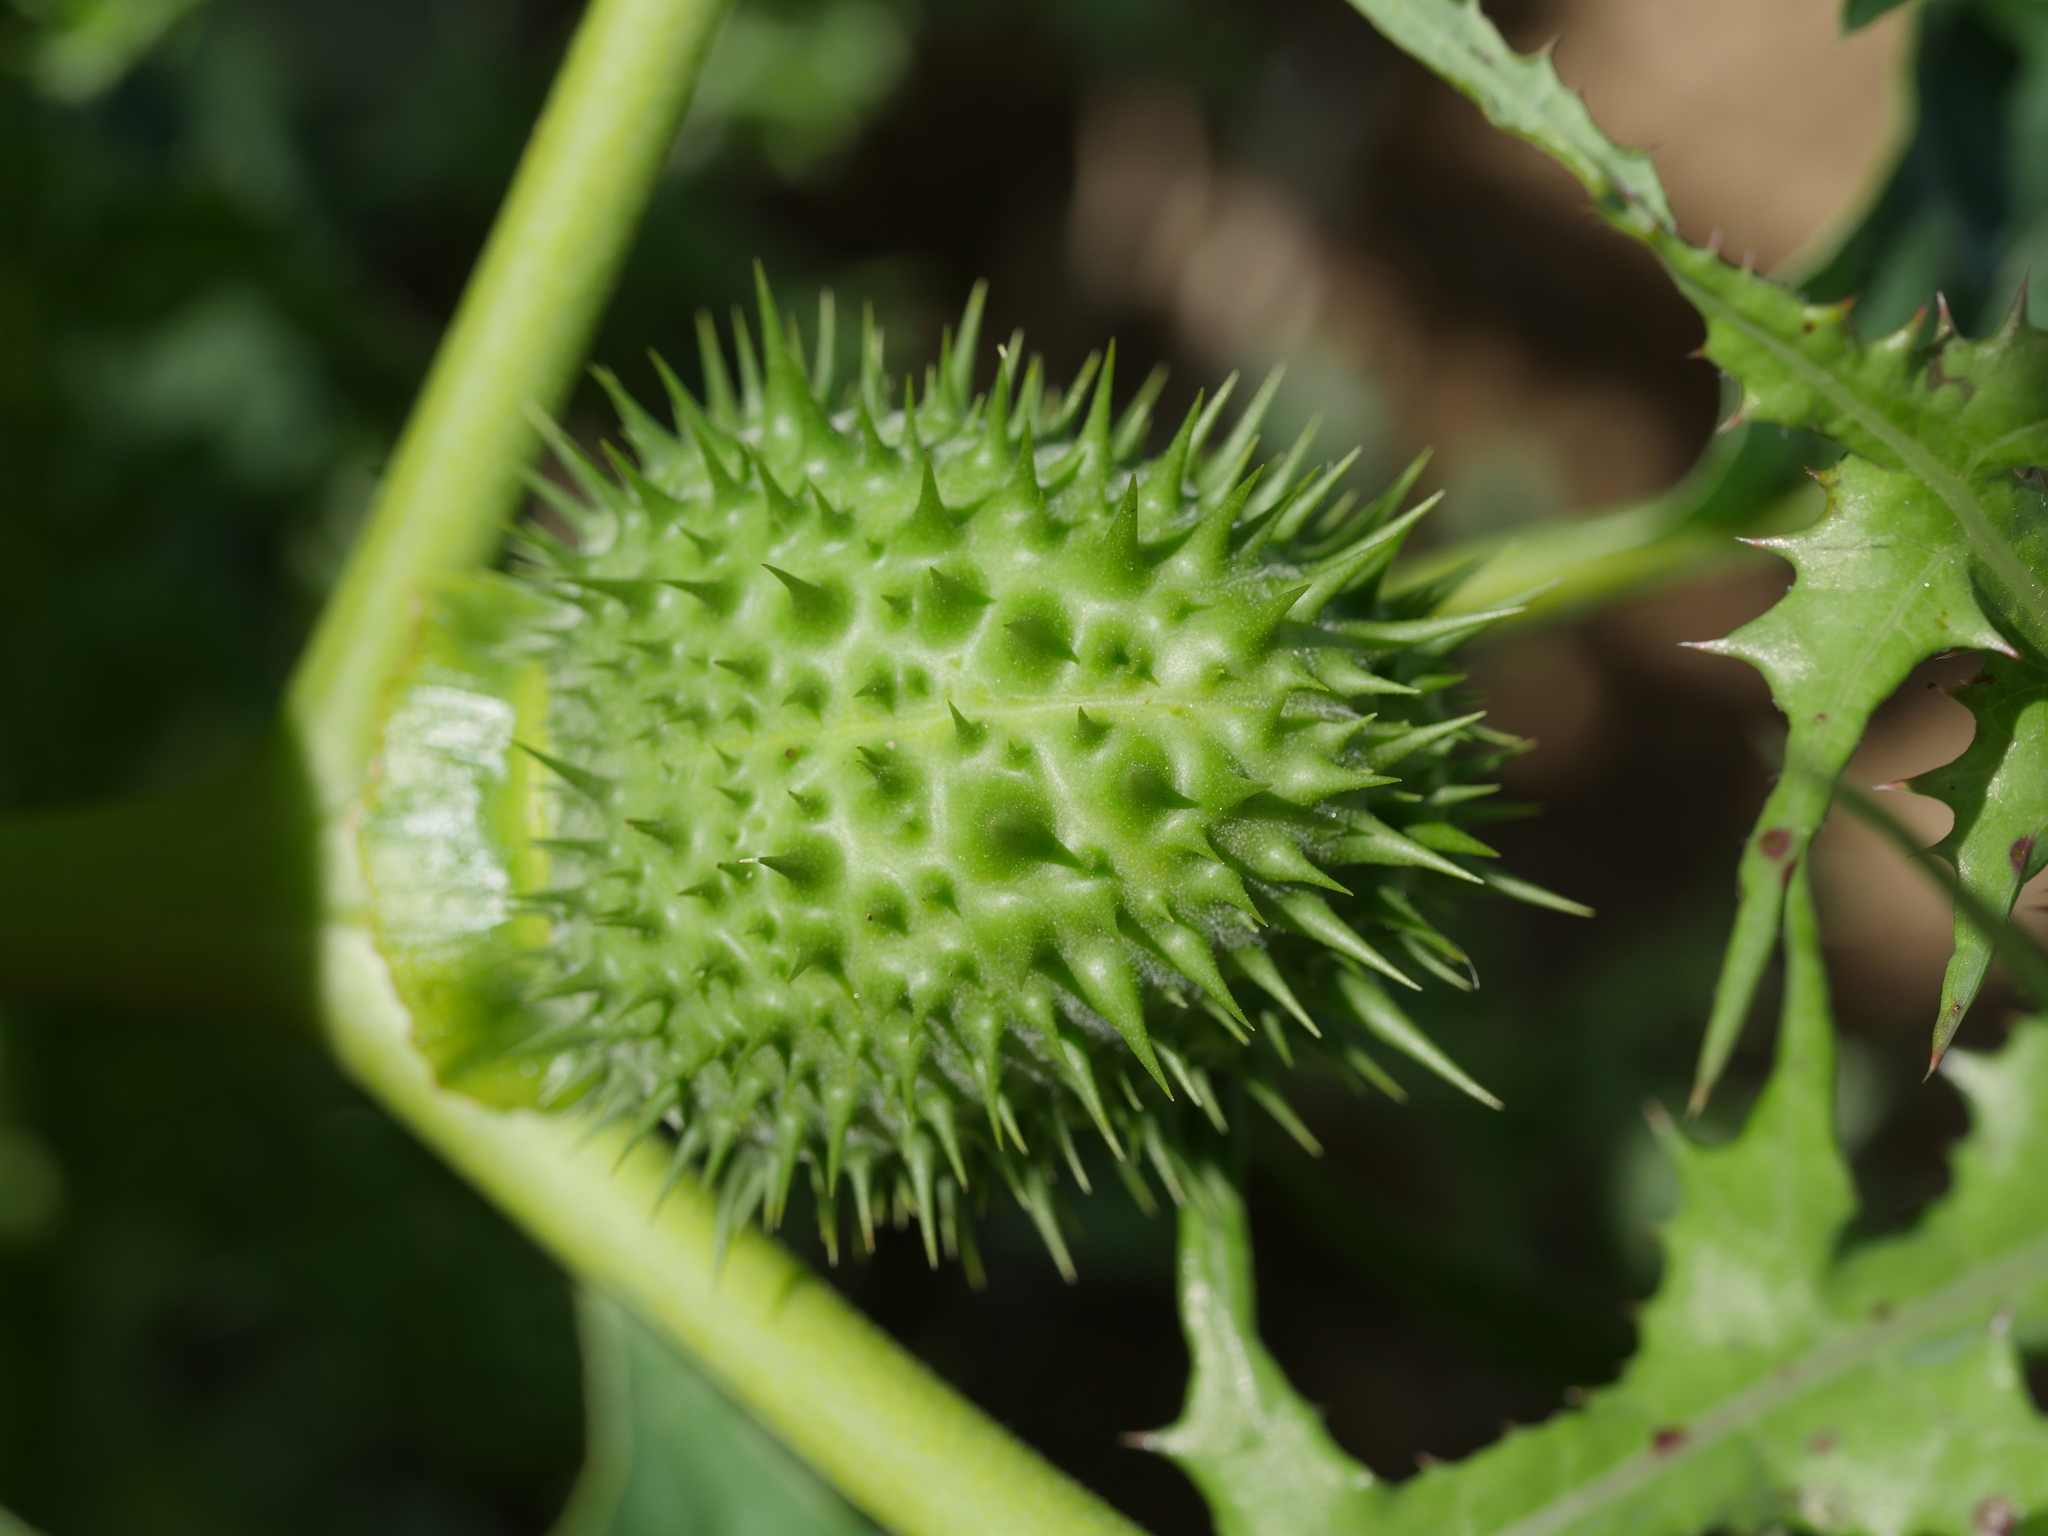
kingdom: Plantae
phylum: Tracheophyta
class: Magnoliopsida
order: Solanales
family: Solanaceae
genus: Datura
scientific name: Datura stramonium
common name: Thorn-apple
